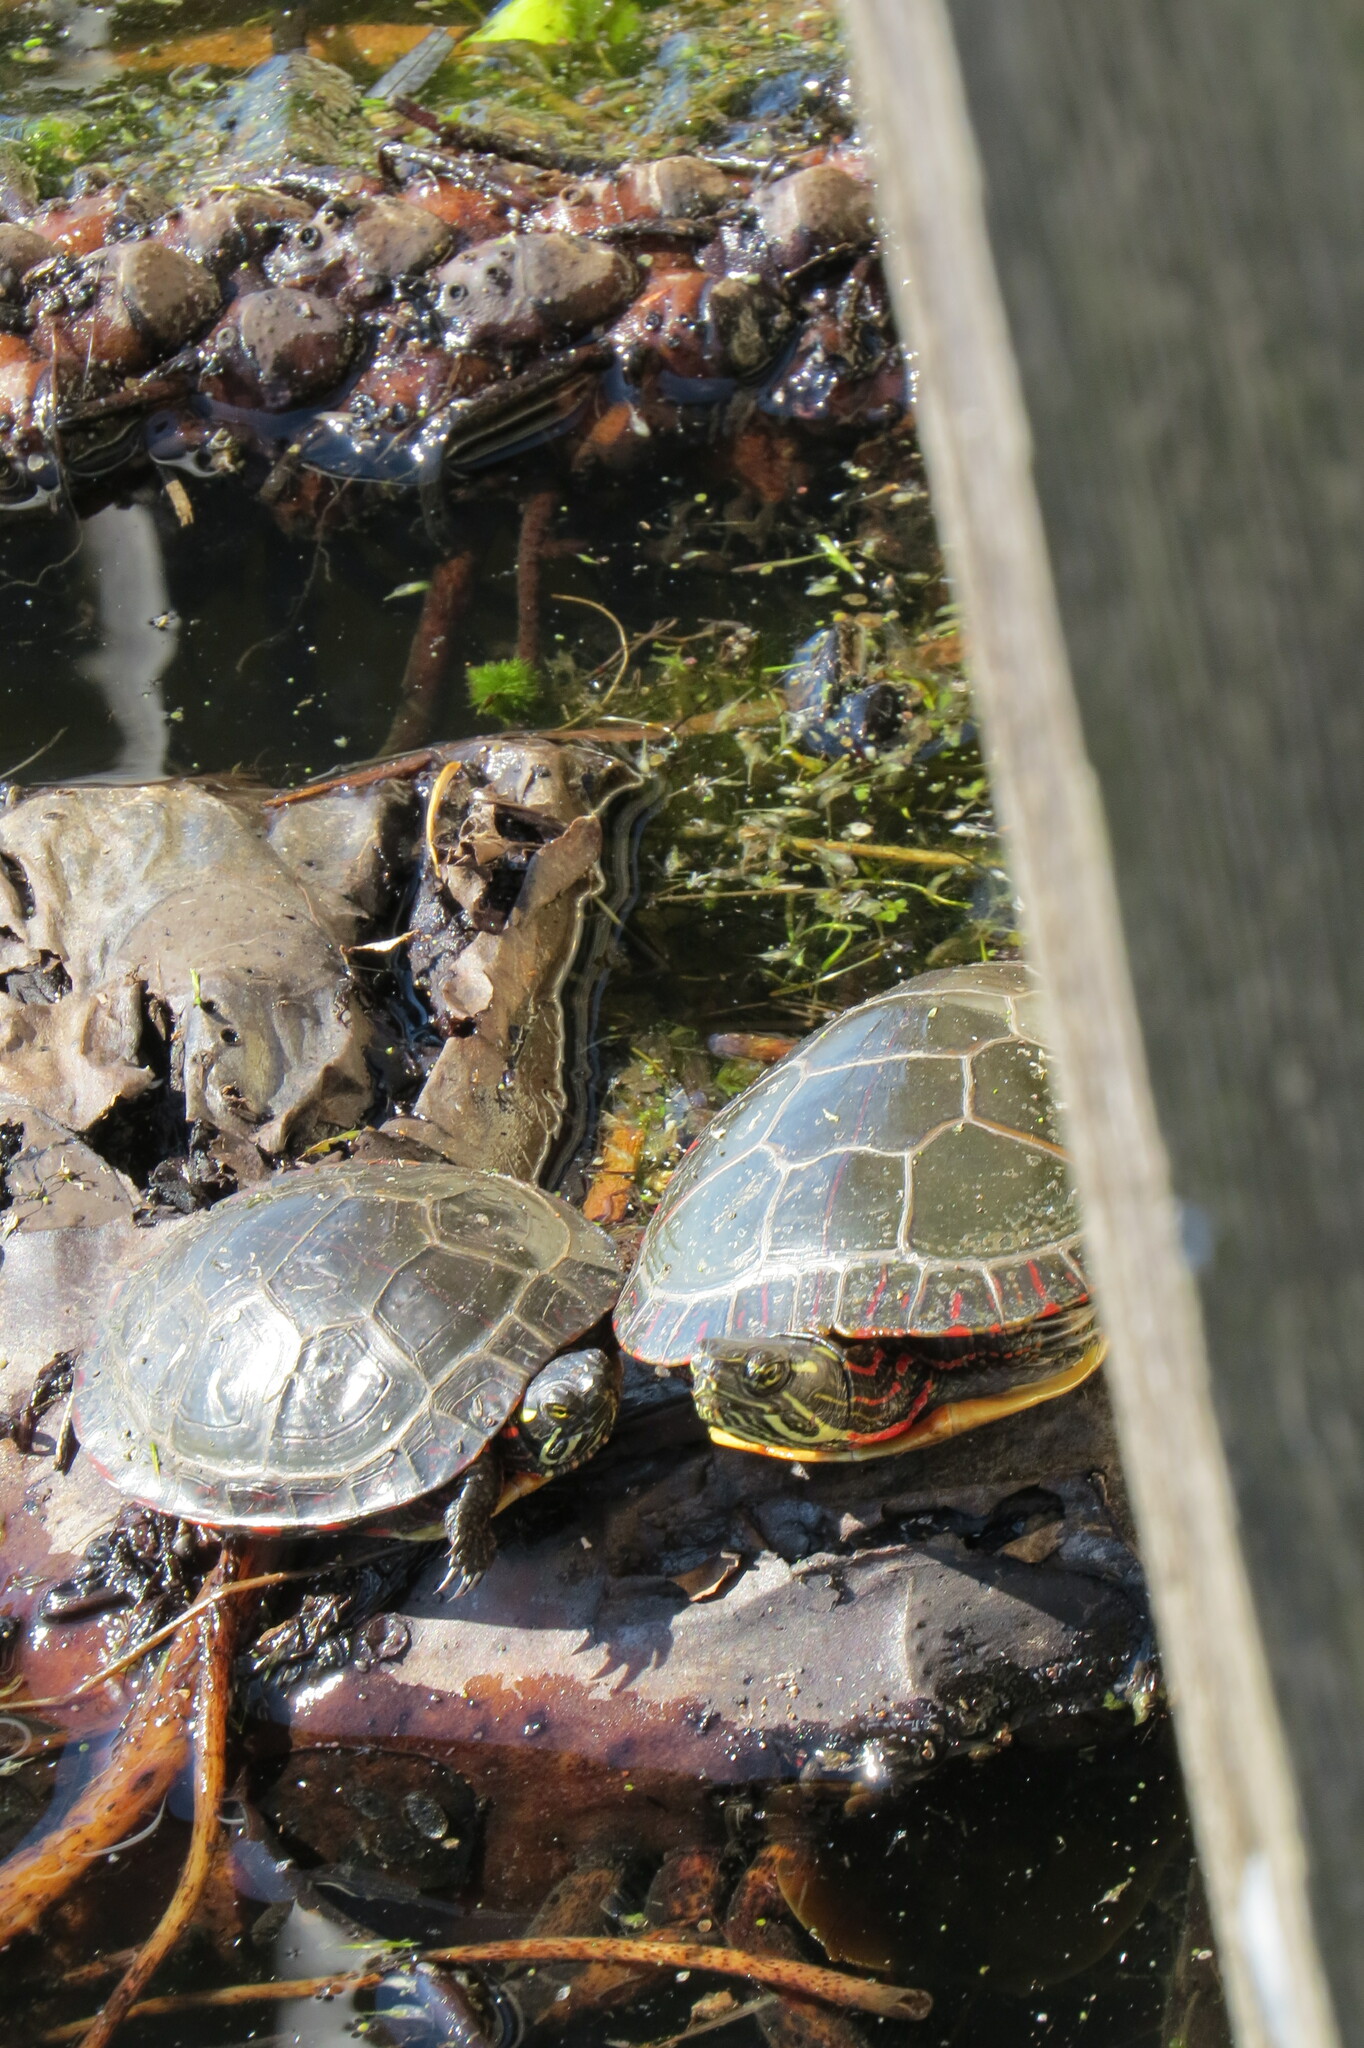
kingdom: Animalia
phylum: Chordata
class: Testudines
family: Emydidae
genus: Chrysemys
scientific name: Chrysemys picta
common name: Painted turtle
